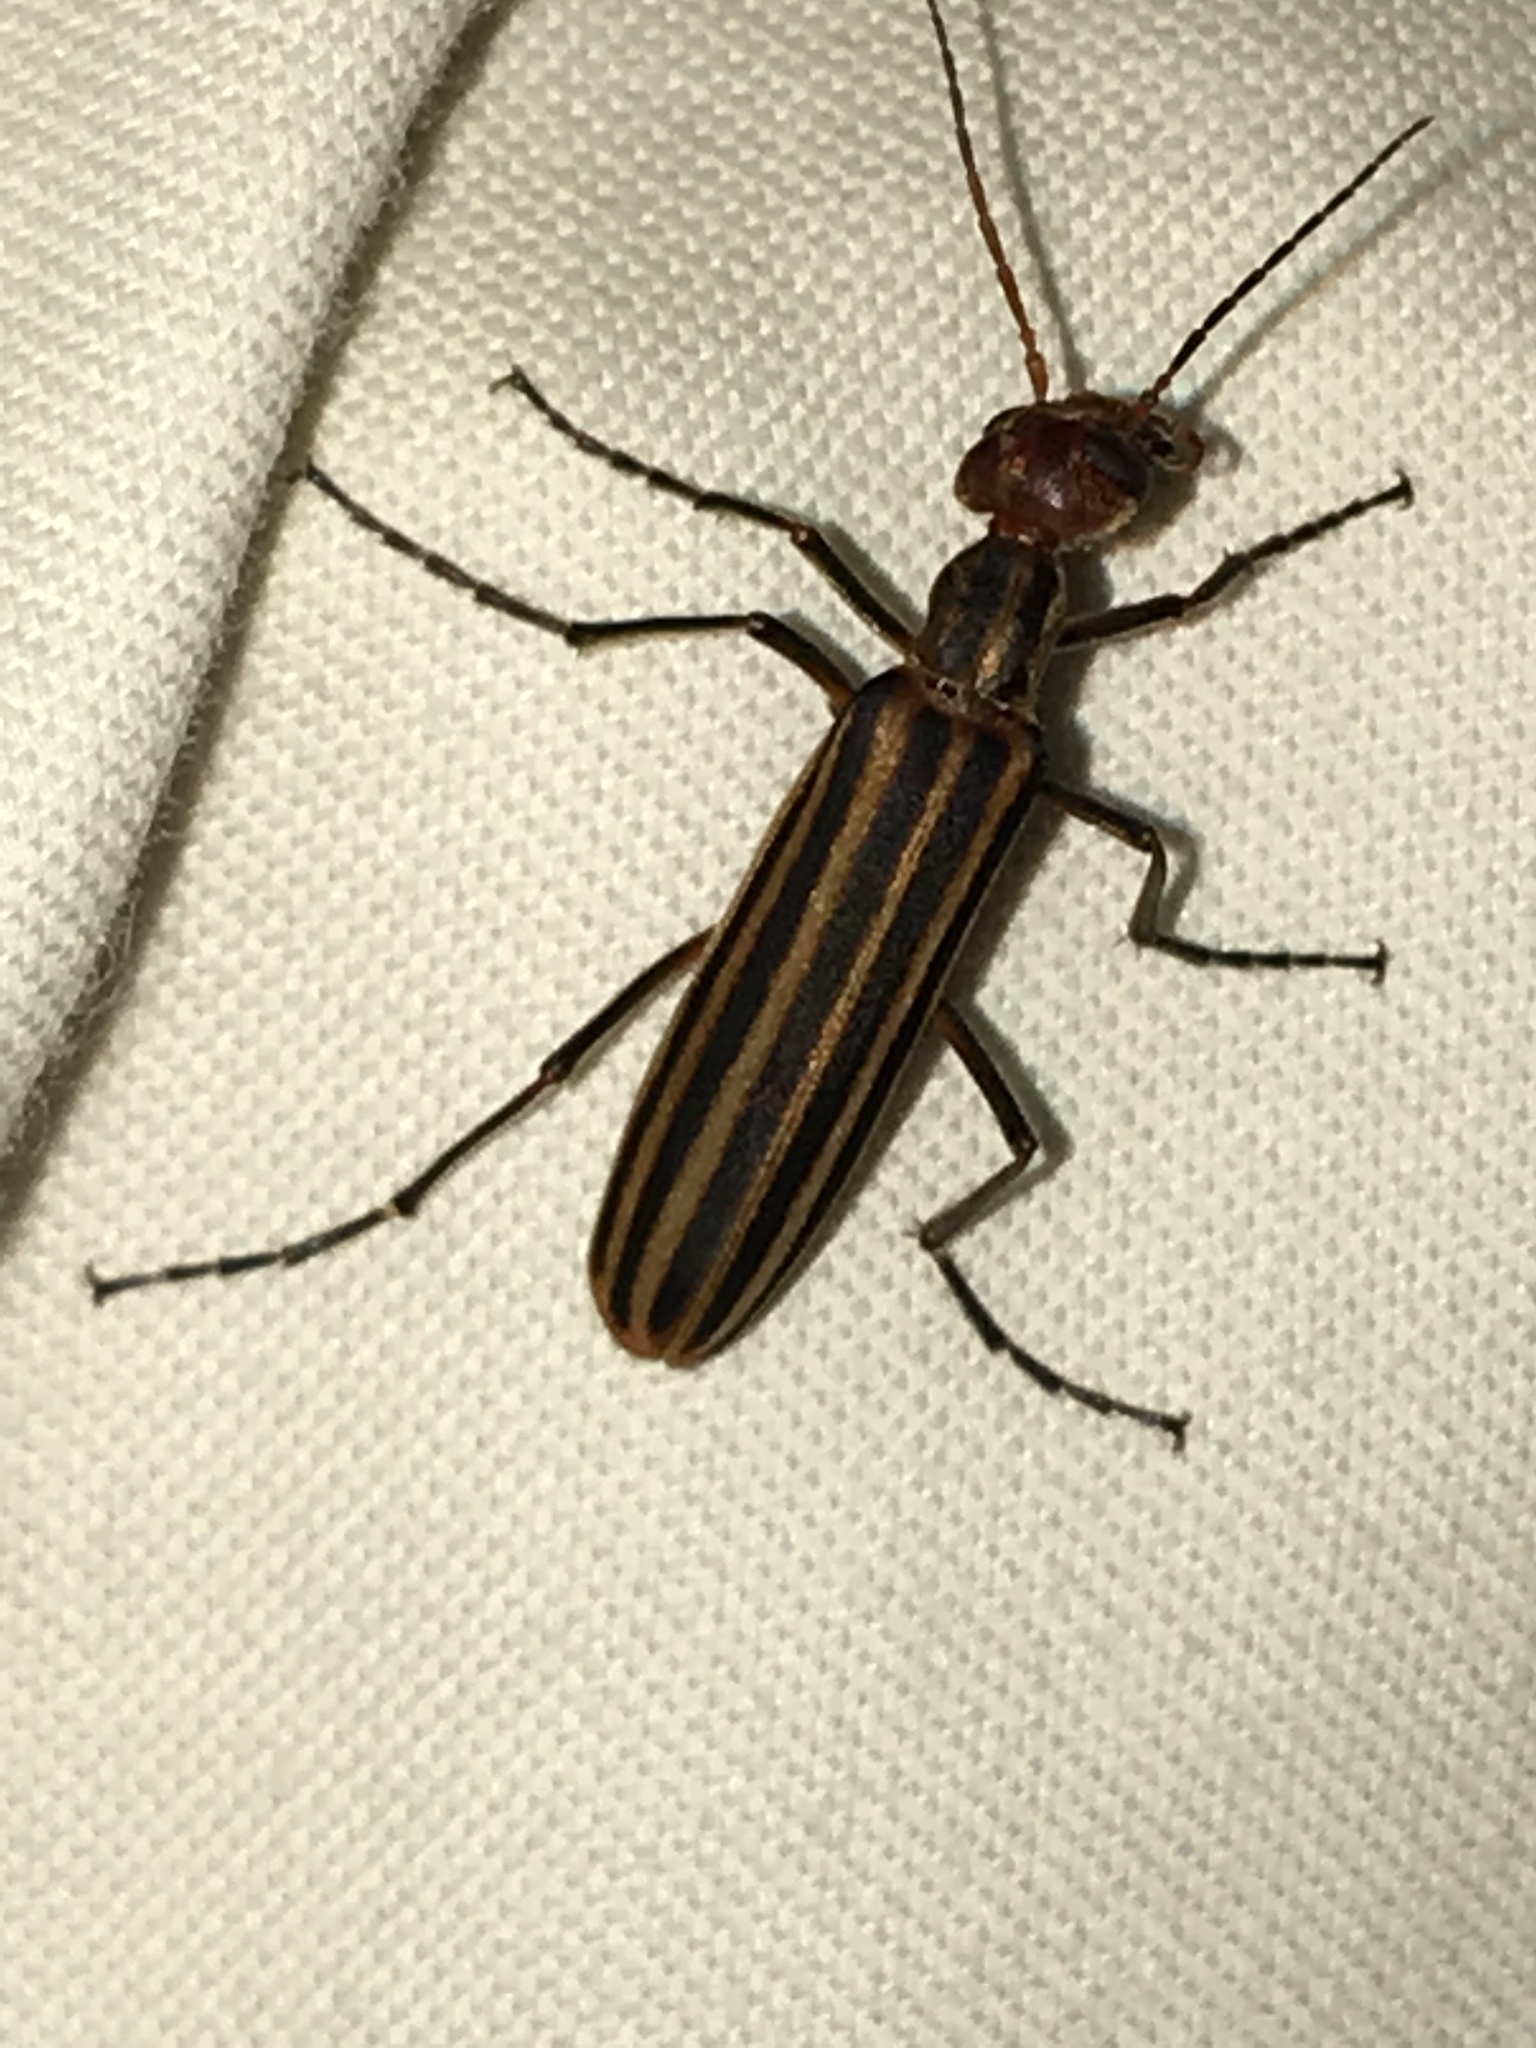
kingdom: Animalia
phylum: Arthropoda
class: Insecta
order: Coleoptera
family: Meloidae
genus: Epicauta
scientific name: Epicauta vittata
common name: Old-fashioned potato beetle
